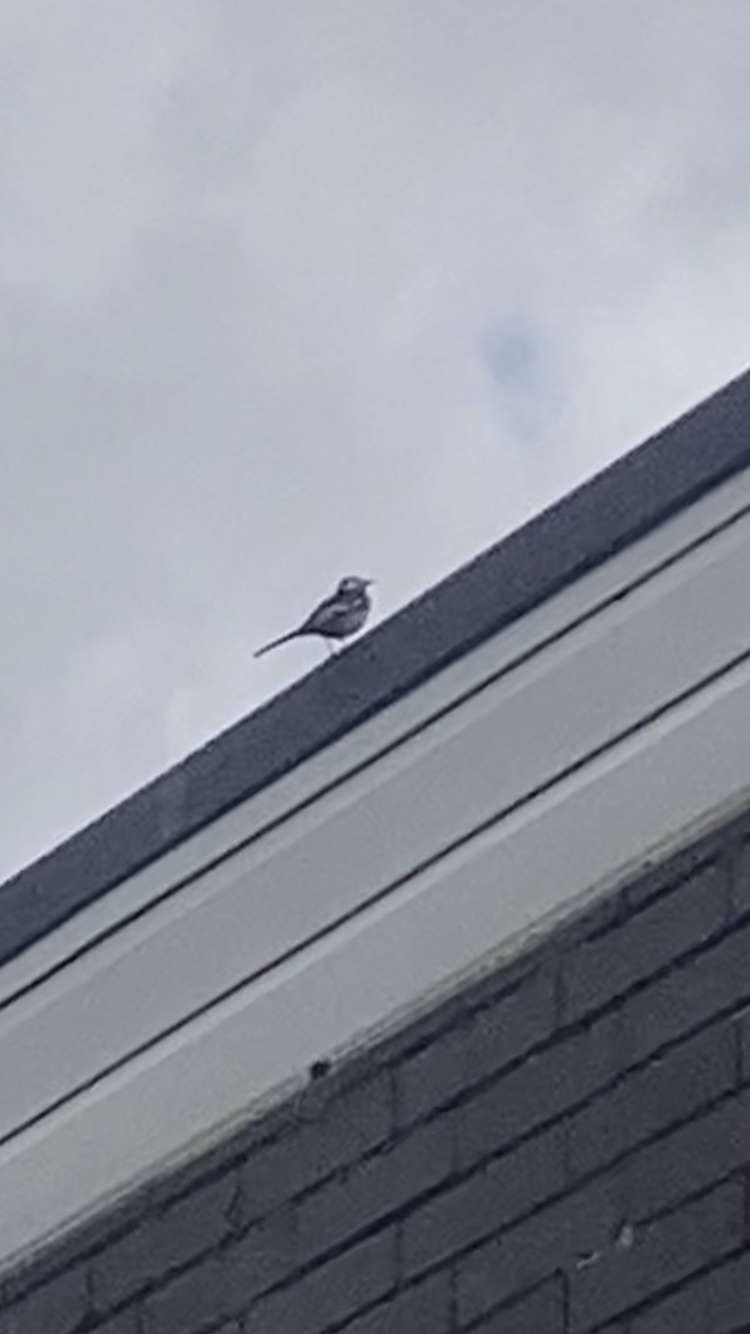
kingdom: Animalia
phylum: Chordata
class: Aves
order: Passeriformes
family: Motacillidae
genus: Motacilla
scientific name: Motacilla alba
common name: White wagtail
